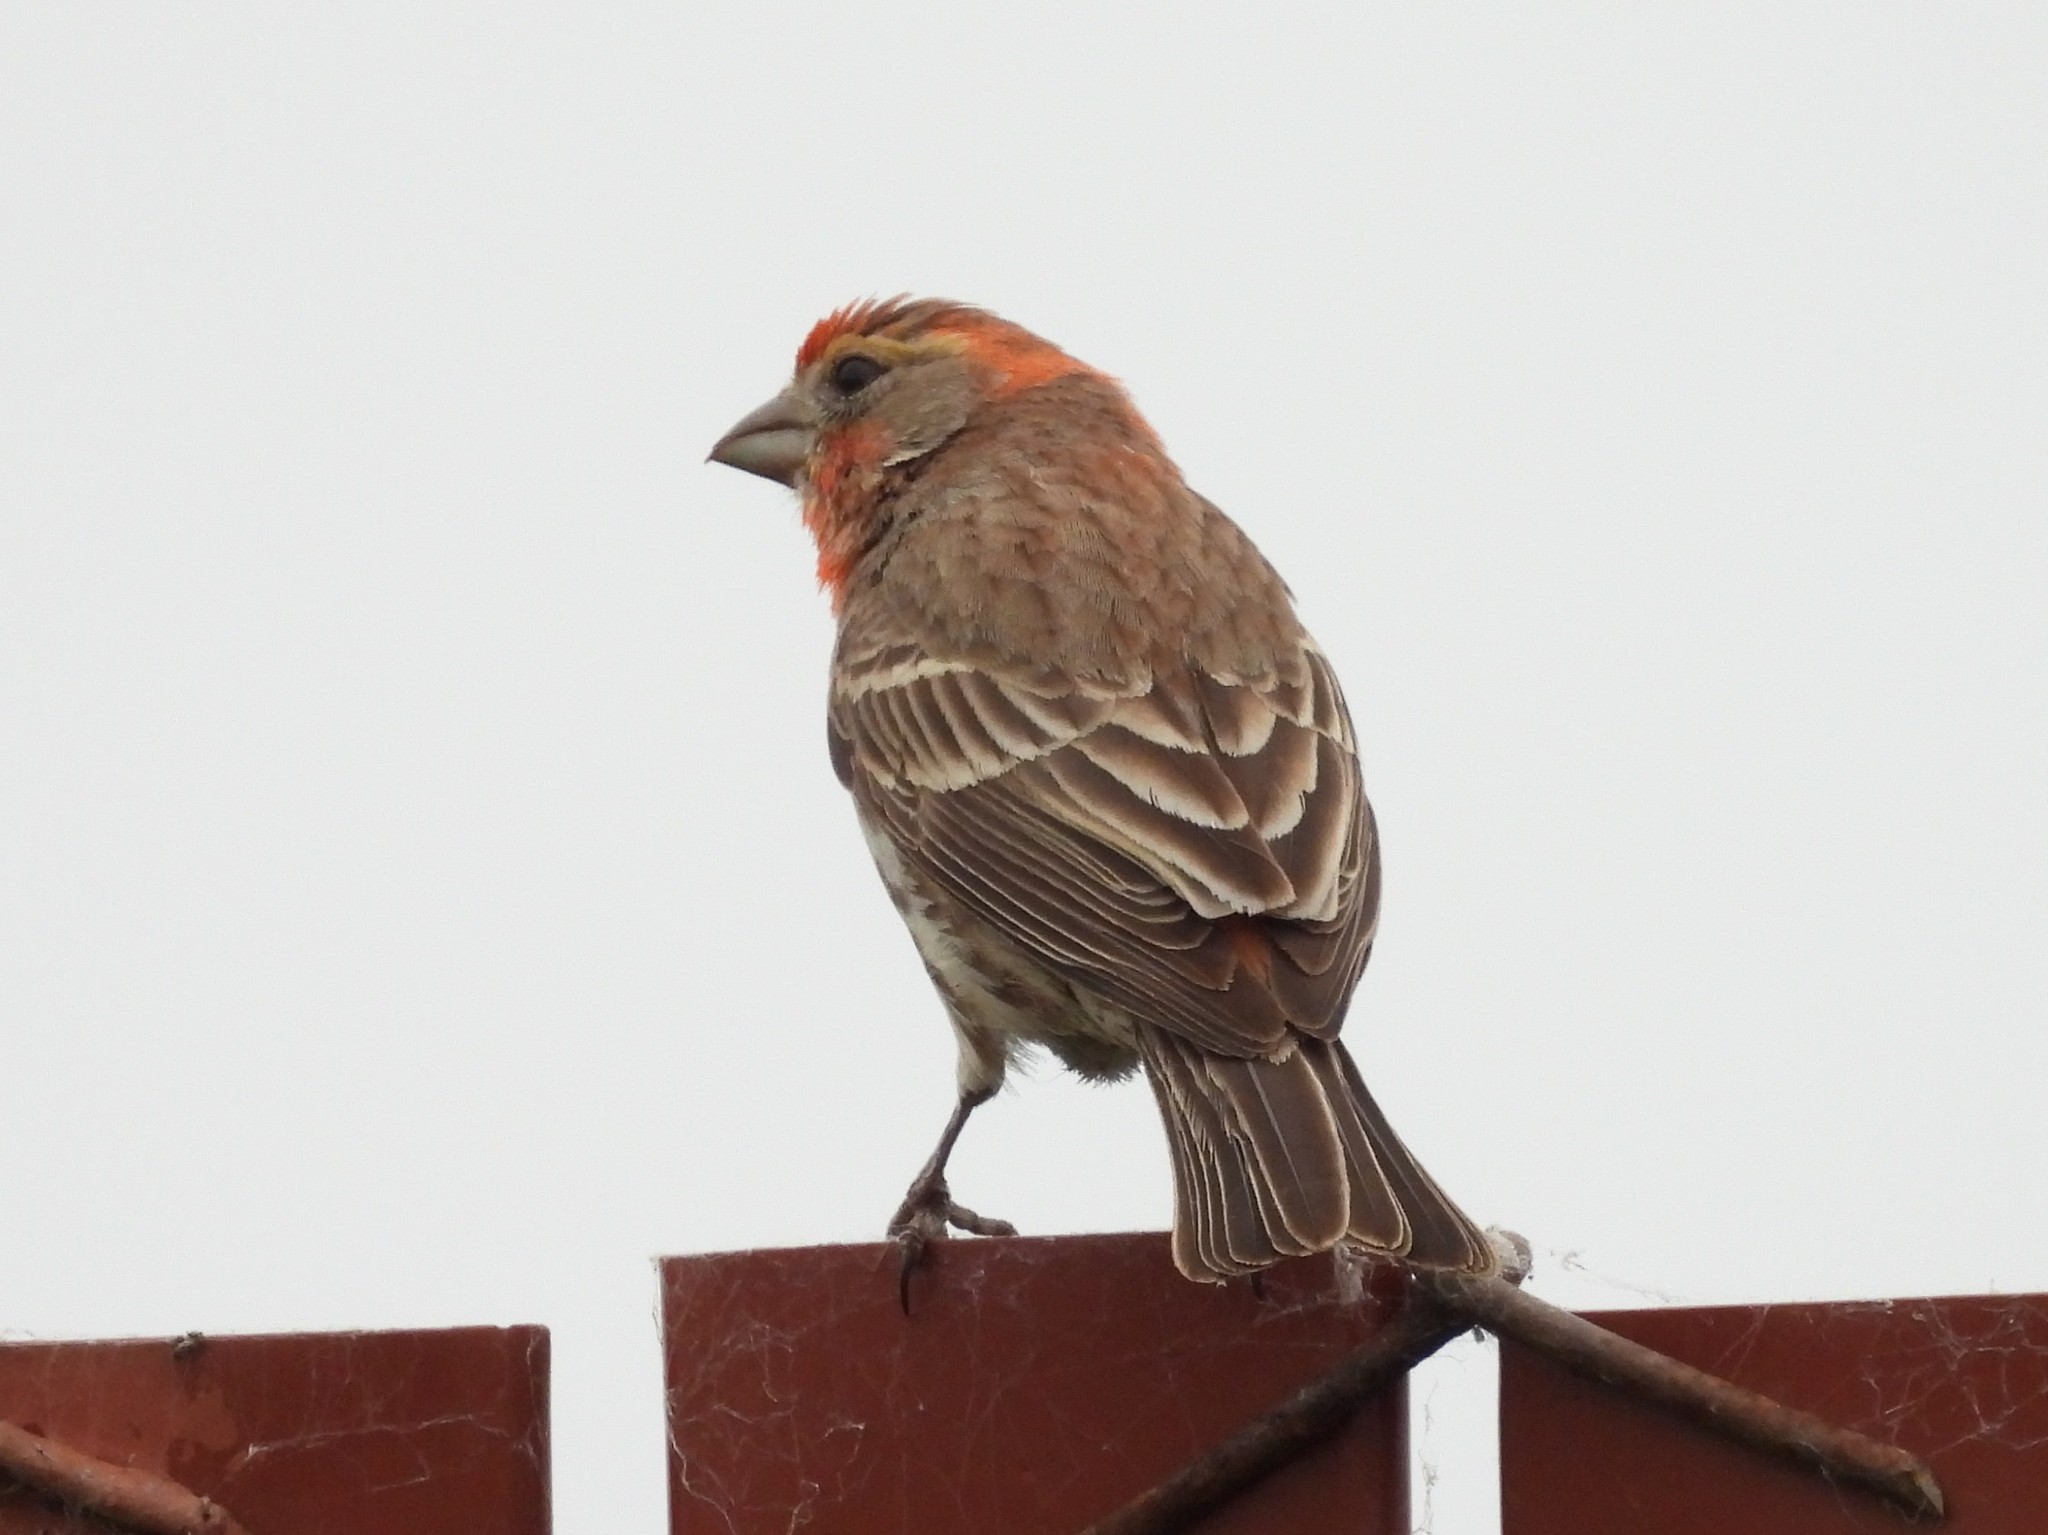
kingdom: Animalia
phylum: Chordata
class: Aves
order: Passeriformes
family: Fringillidae
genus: Haemorhous
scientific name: Haemorhous mexicanus
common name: House finch
